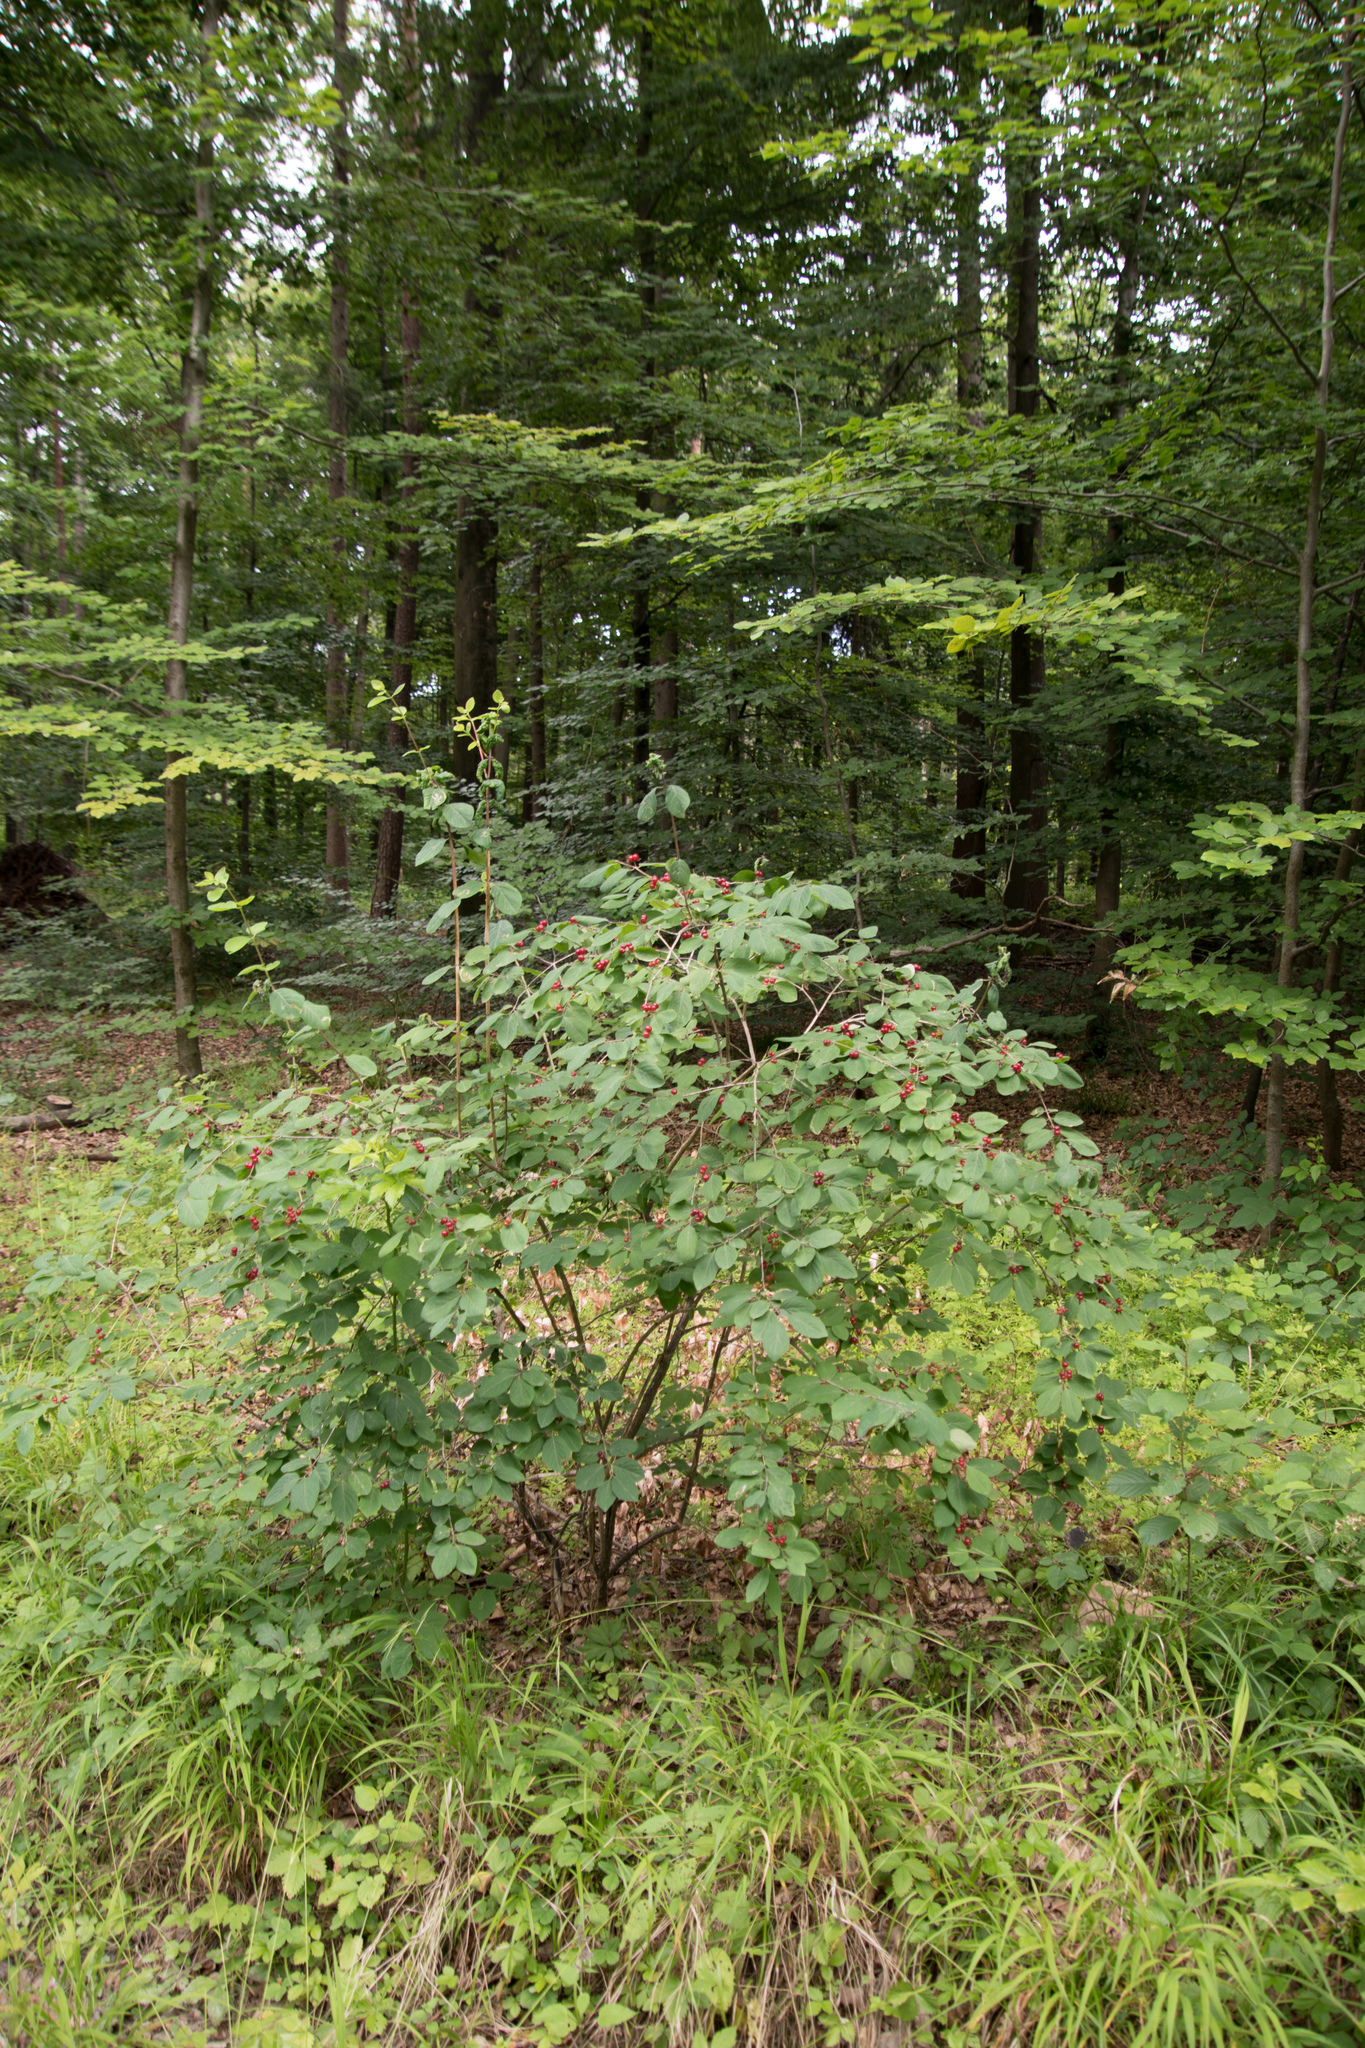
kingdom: Plantae
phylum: Tracheophyta
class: Magnoliopsida
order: Dipsacales
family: Caprifoliaceae
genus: Lonicera
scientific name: Lonicera xylosteum
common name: Fly honeysuckle
